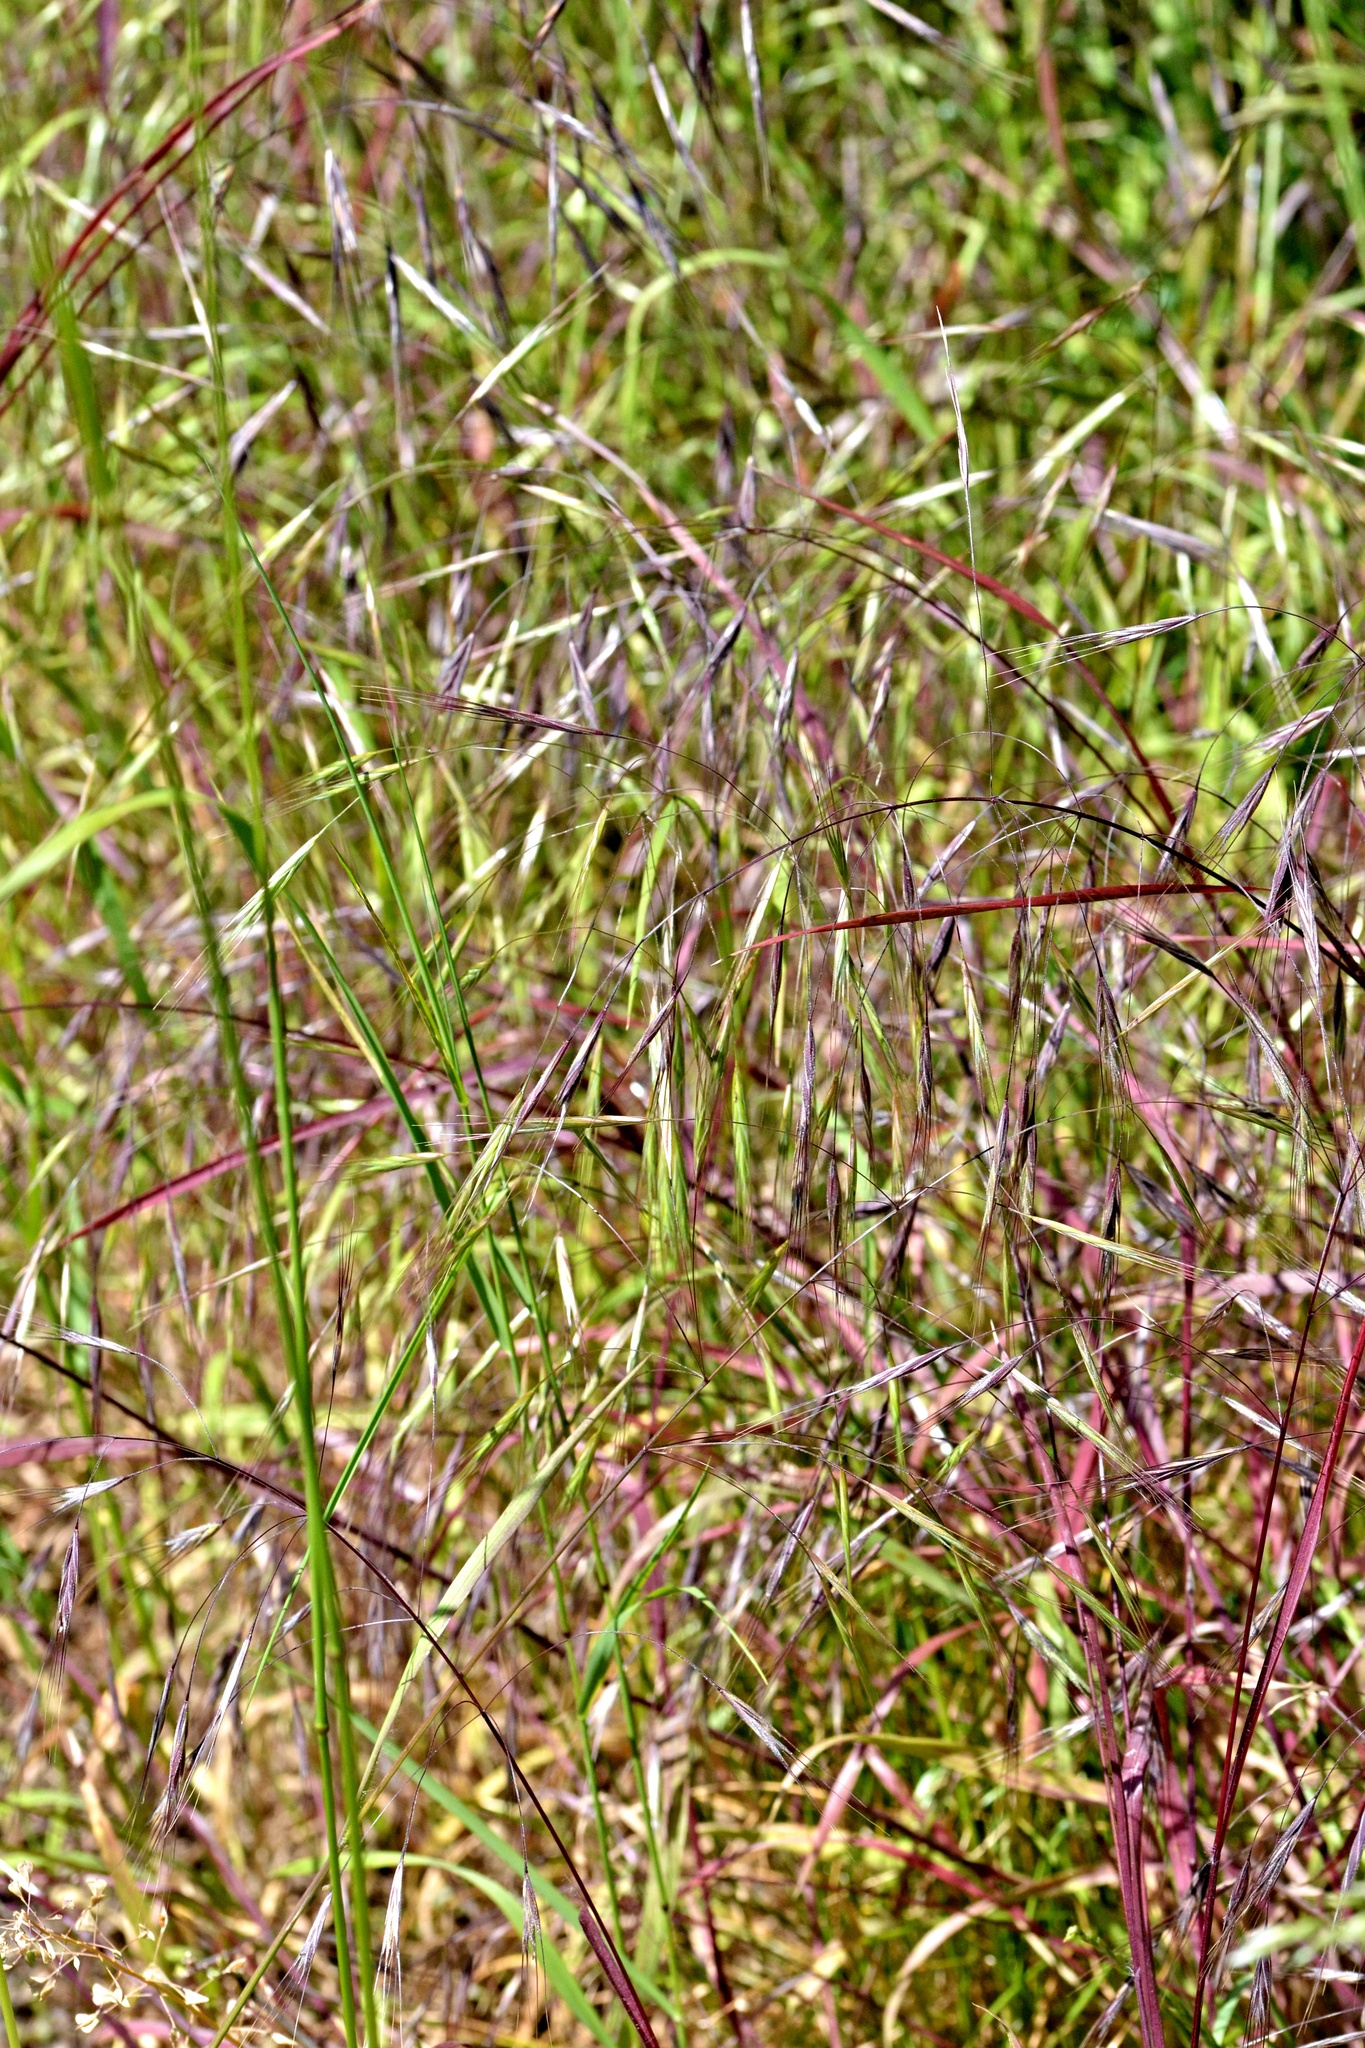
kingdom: Plantae
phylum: Tracheophyta
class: Liliopsida
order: Poales
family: Poaceae
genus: Bromus
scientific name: Bromus sterilis
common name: Poverty brome
